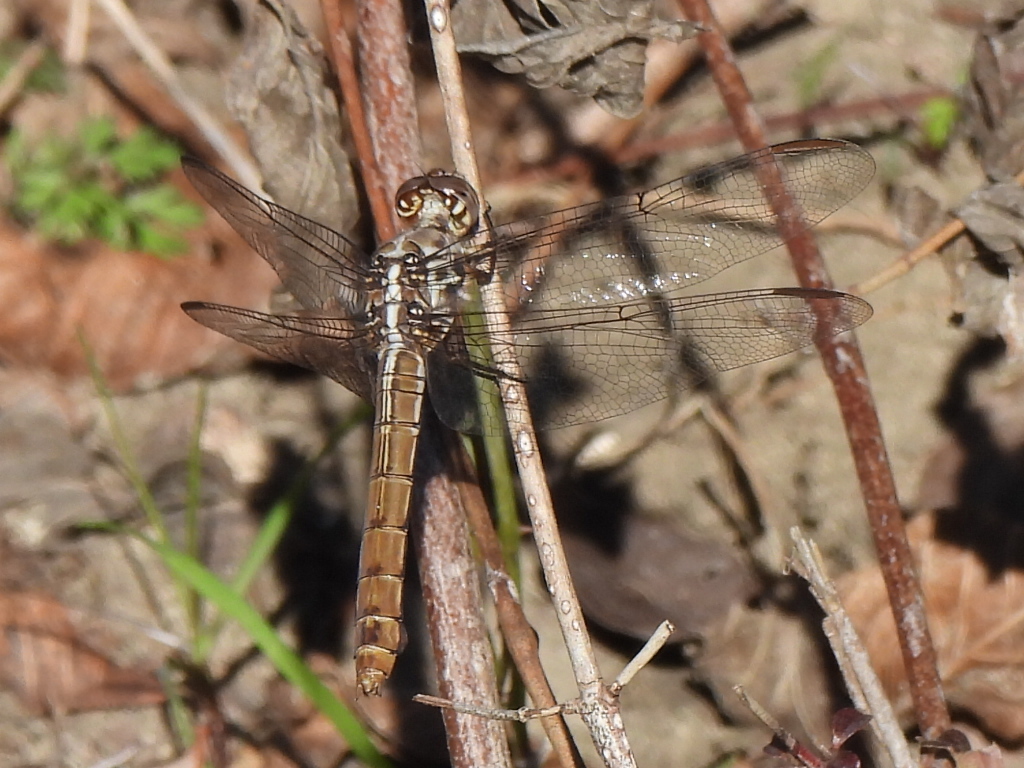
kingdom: Animalia
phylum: Arthropoda
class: Insecta
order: Odonata
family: Libellulidae
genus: Orthemis
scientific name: Orthemis ferruginea
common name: Roseate skimmer
